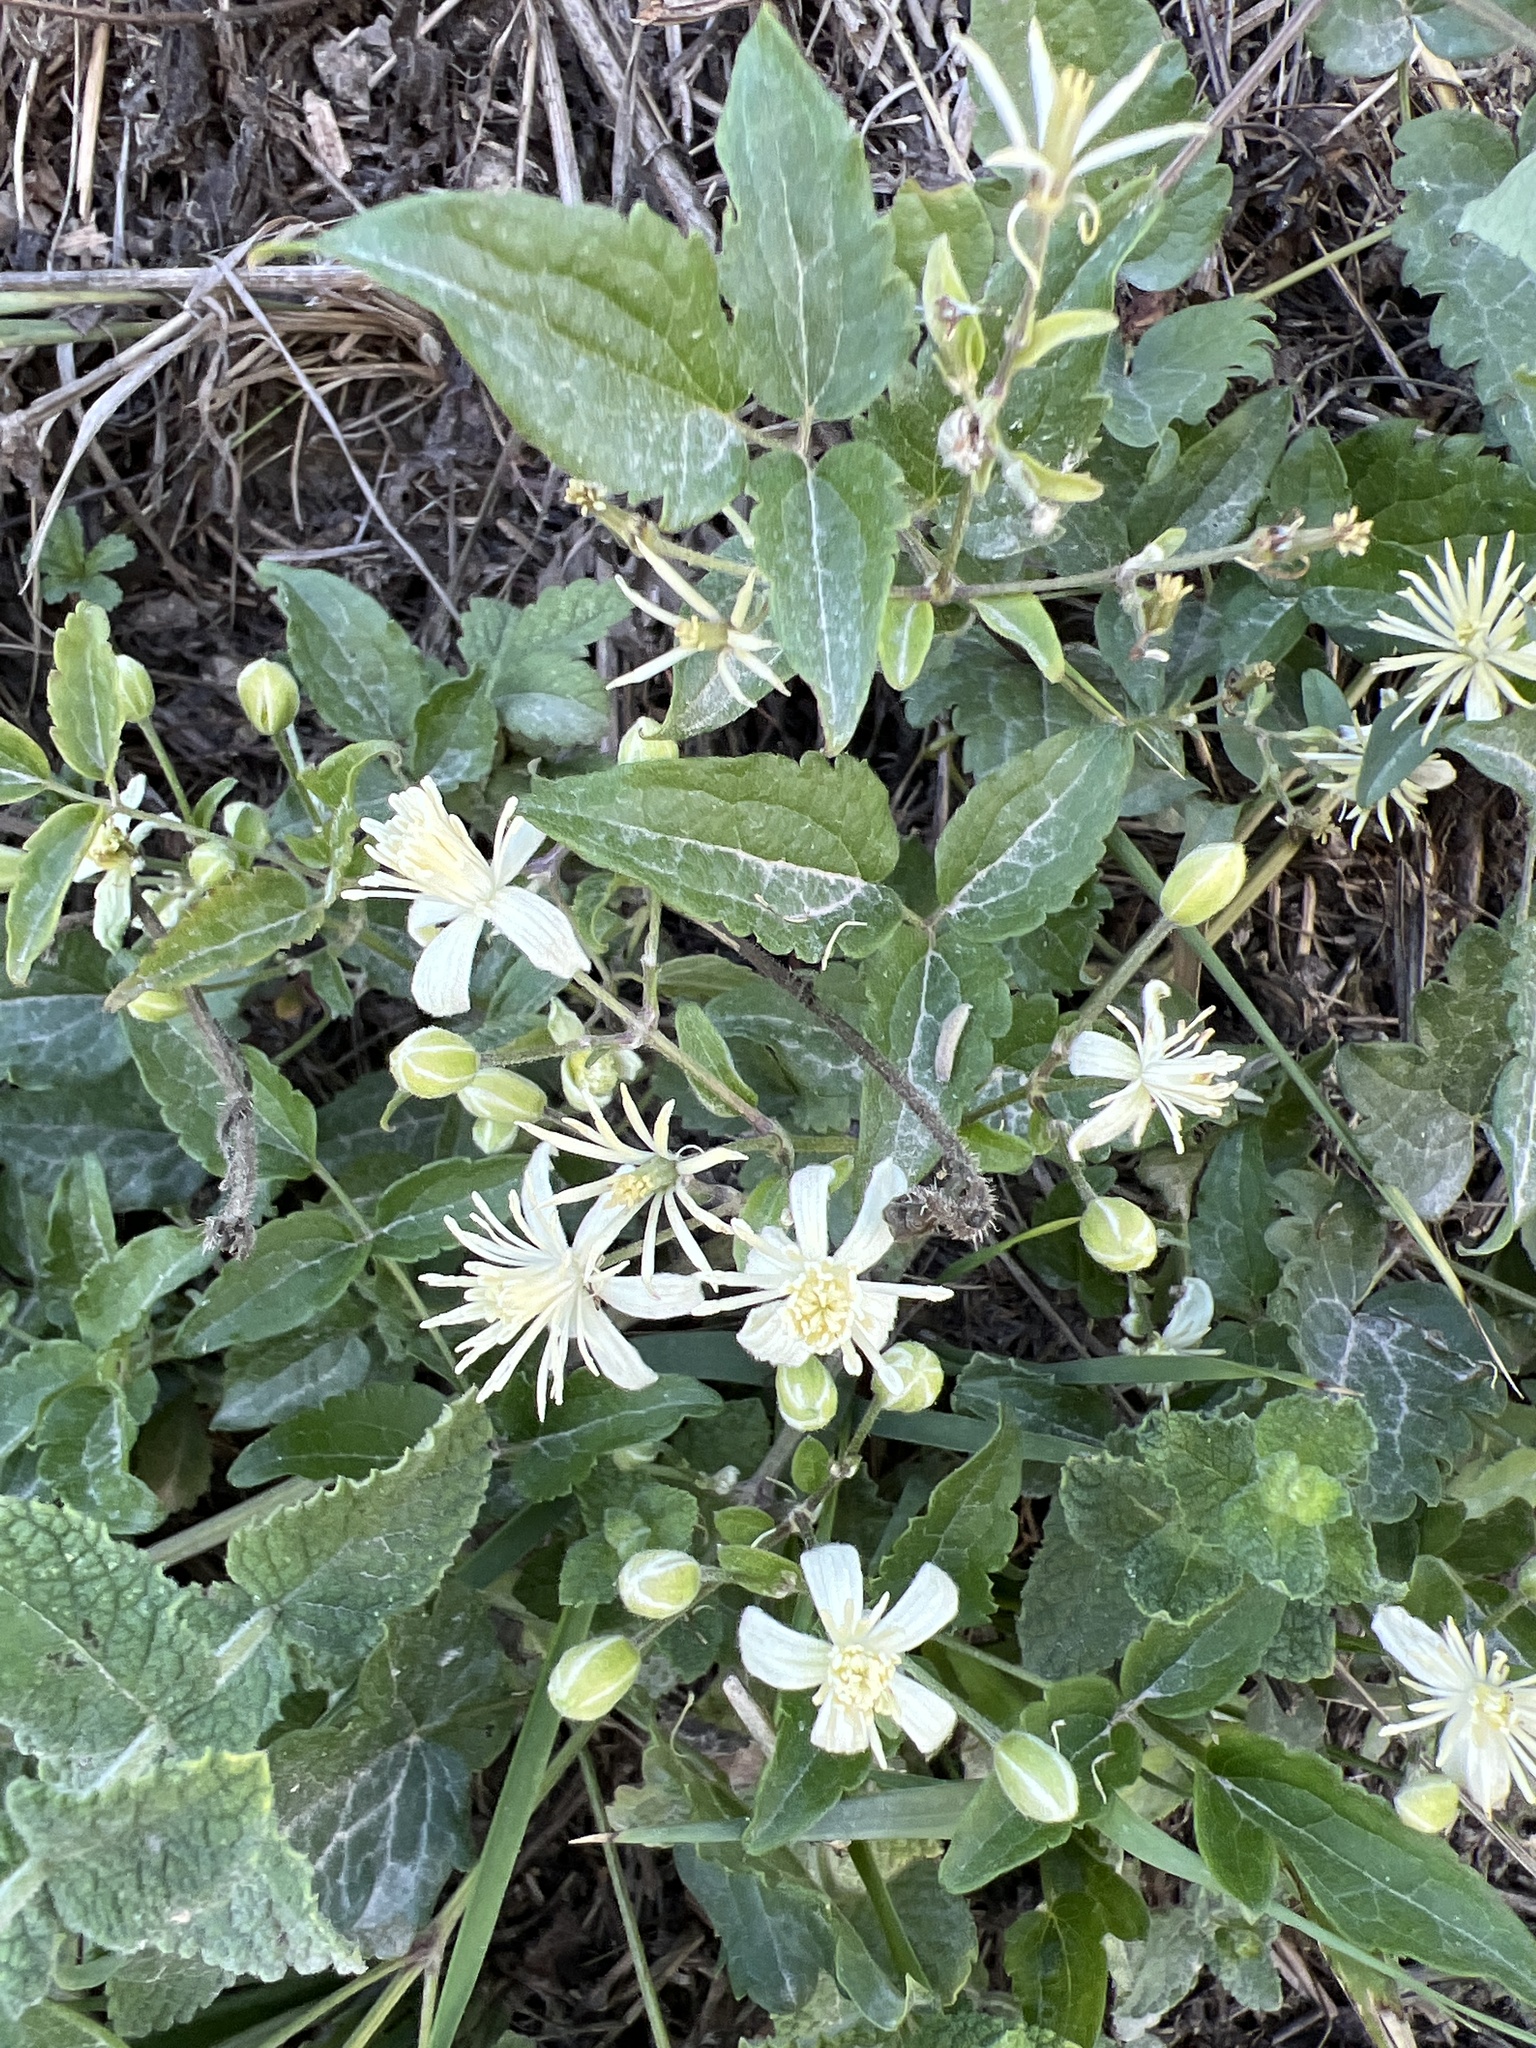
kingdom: Plantae
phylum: Tracheophyta
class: Magnoliopsida
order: Ranunculales
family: Ranunculaceae
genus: Clematis
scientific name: Clematis vitalba
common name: Evergreen clematis
